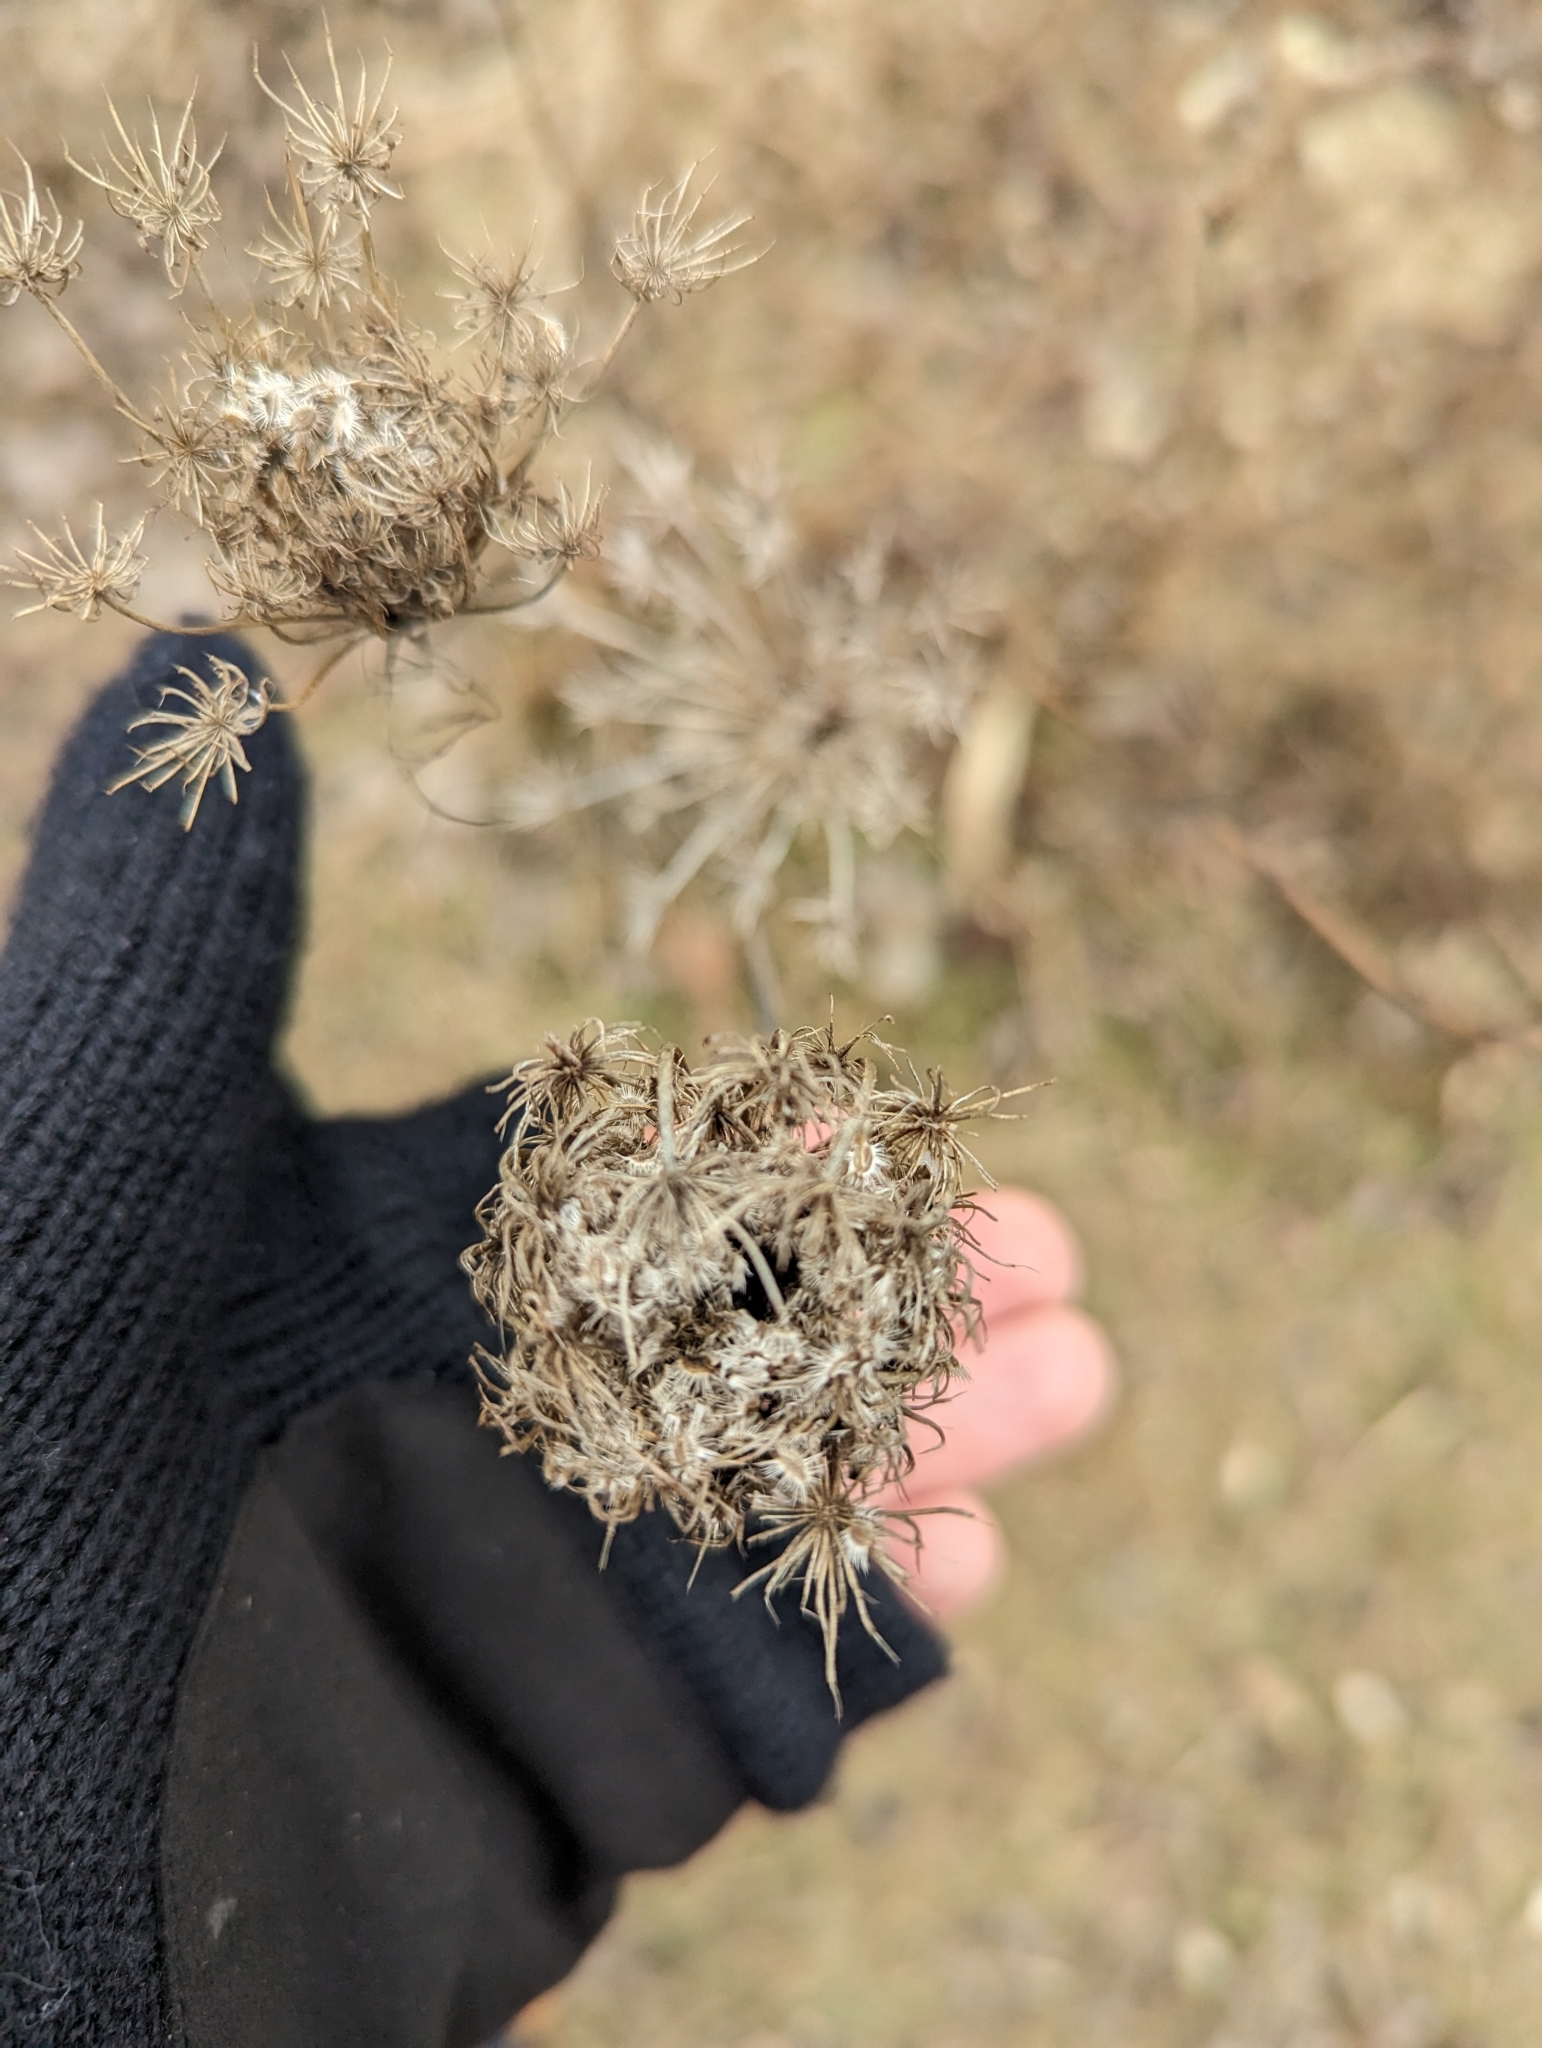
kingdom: Plantae
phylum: Tracheophyta
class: Magnoliopsida
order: Apiales
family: Apiaceae
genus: Daucus
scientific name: Daucus carota
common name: Wild carrot
